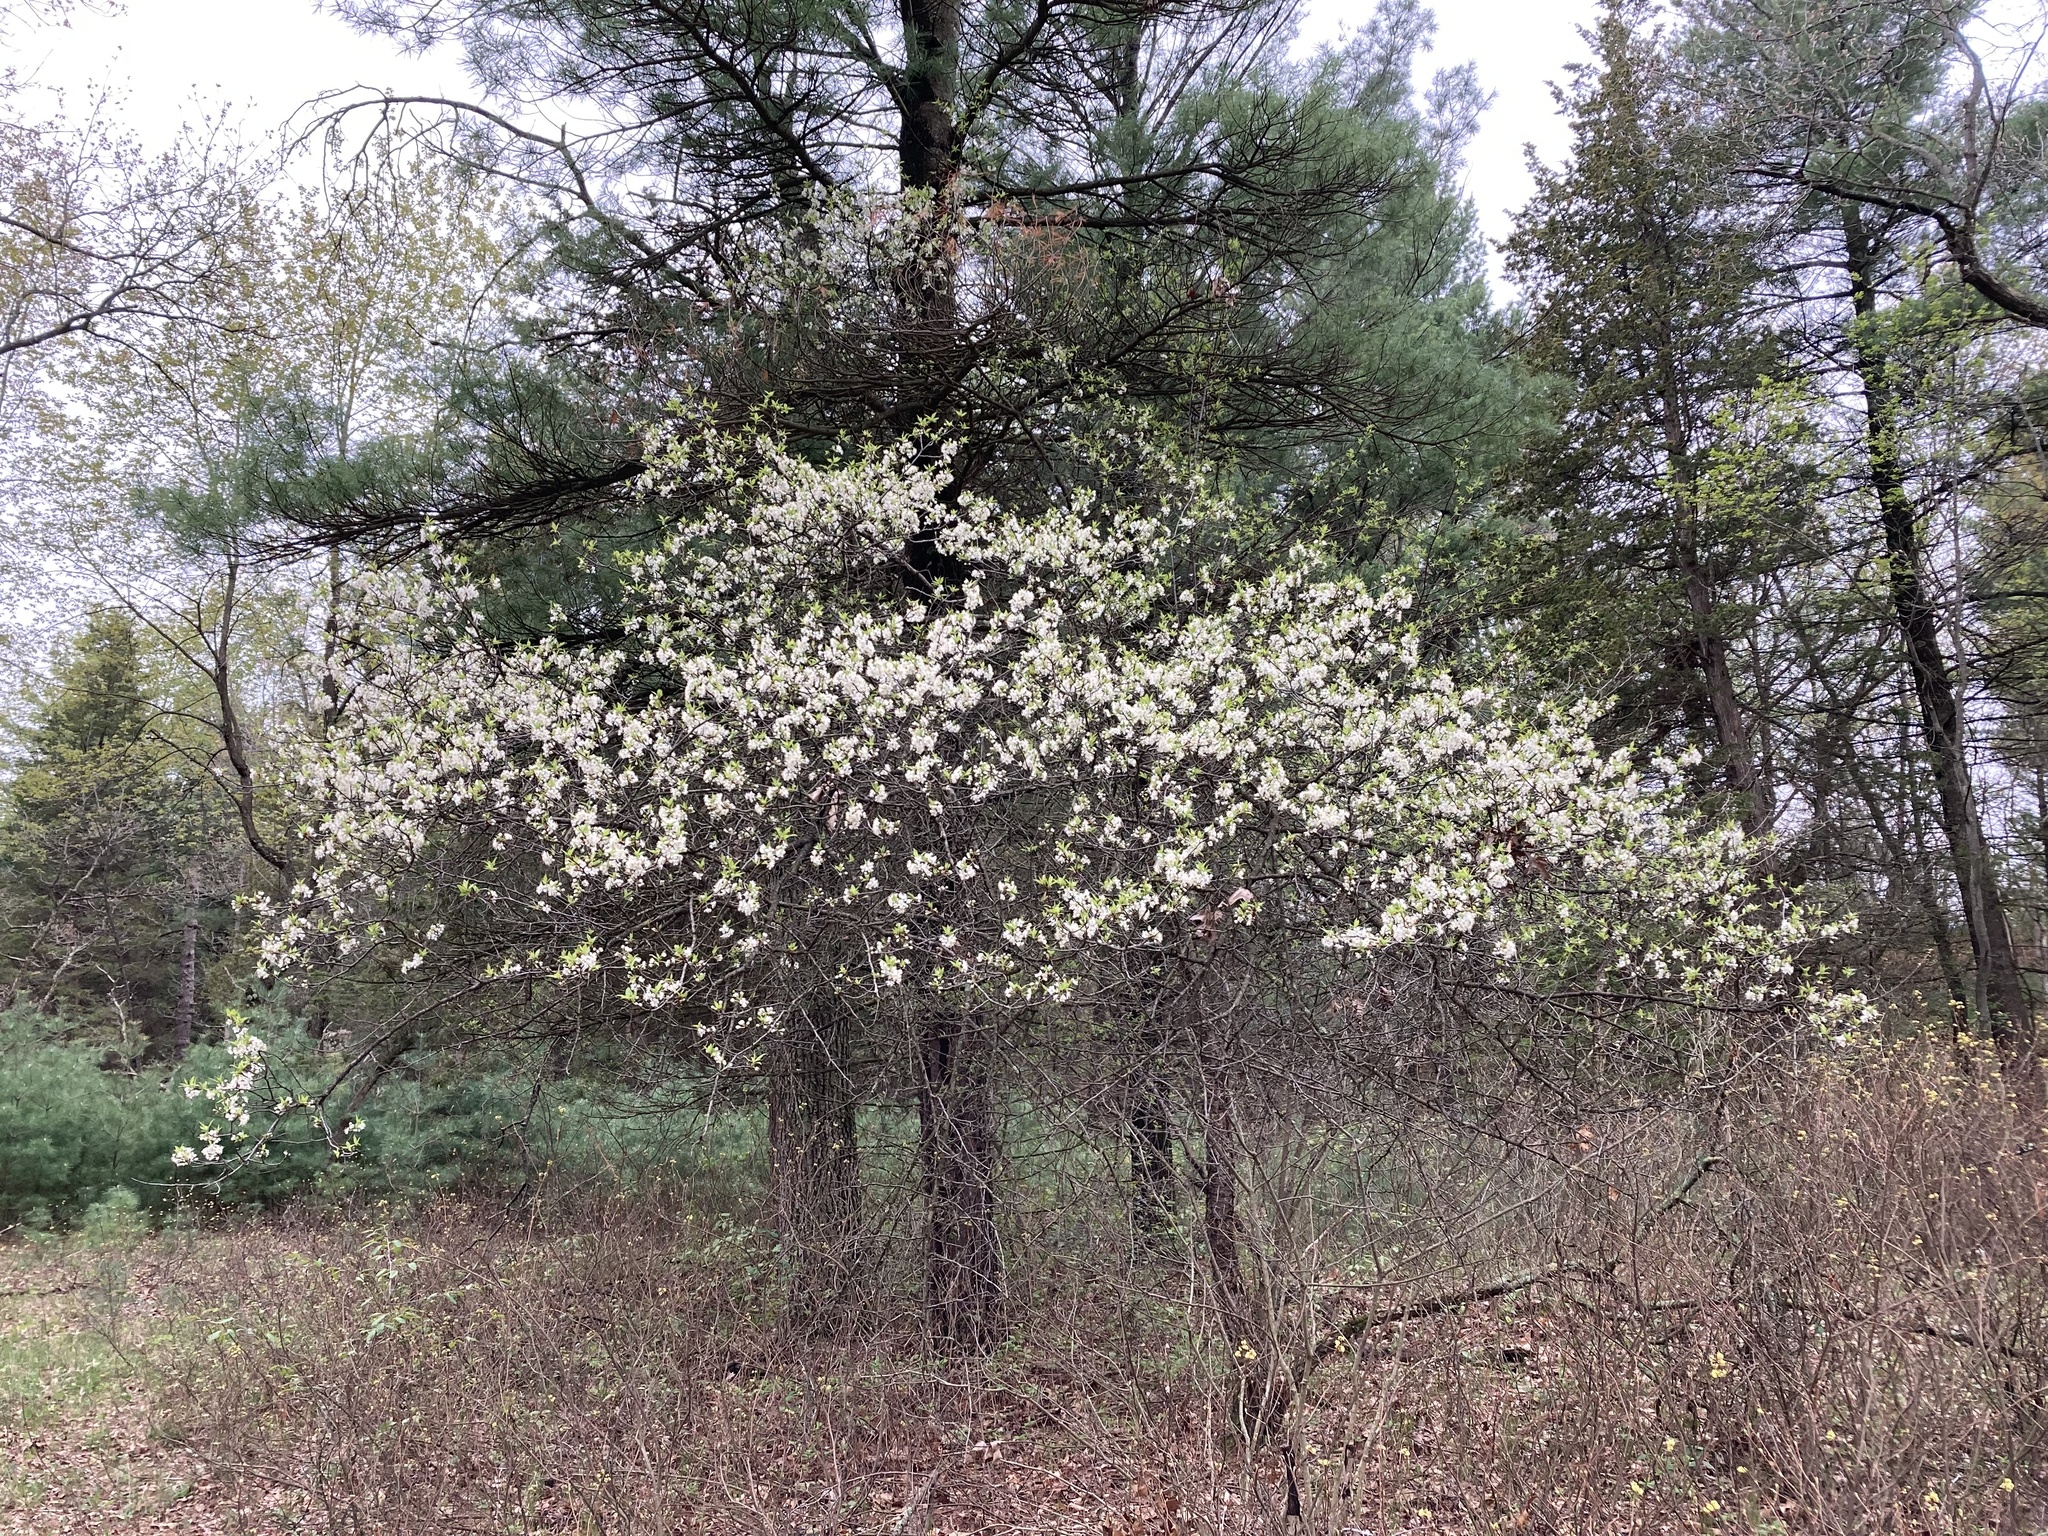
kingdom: Plantae
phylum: Tracheophyta
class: Magnoliopsida
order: Rosales
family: Rosaceae
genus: Prunus
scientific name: Prunus americana
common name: American plum
